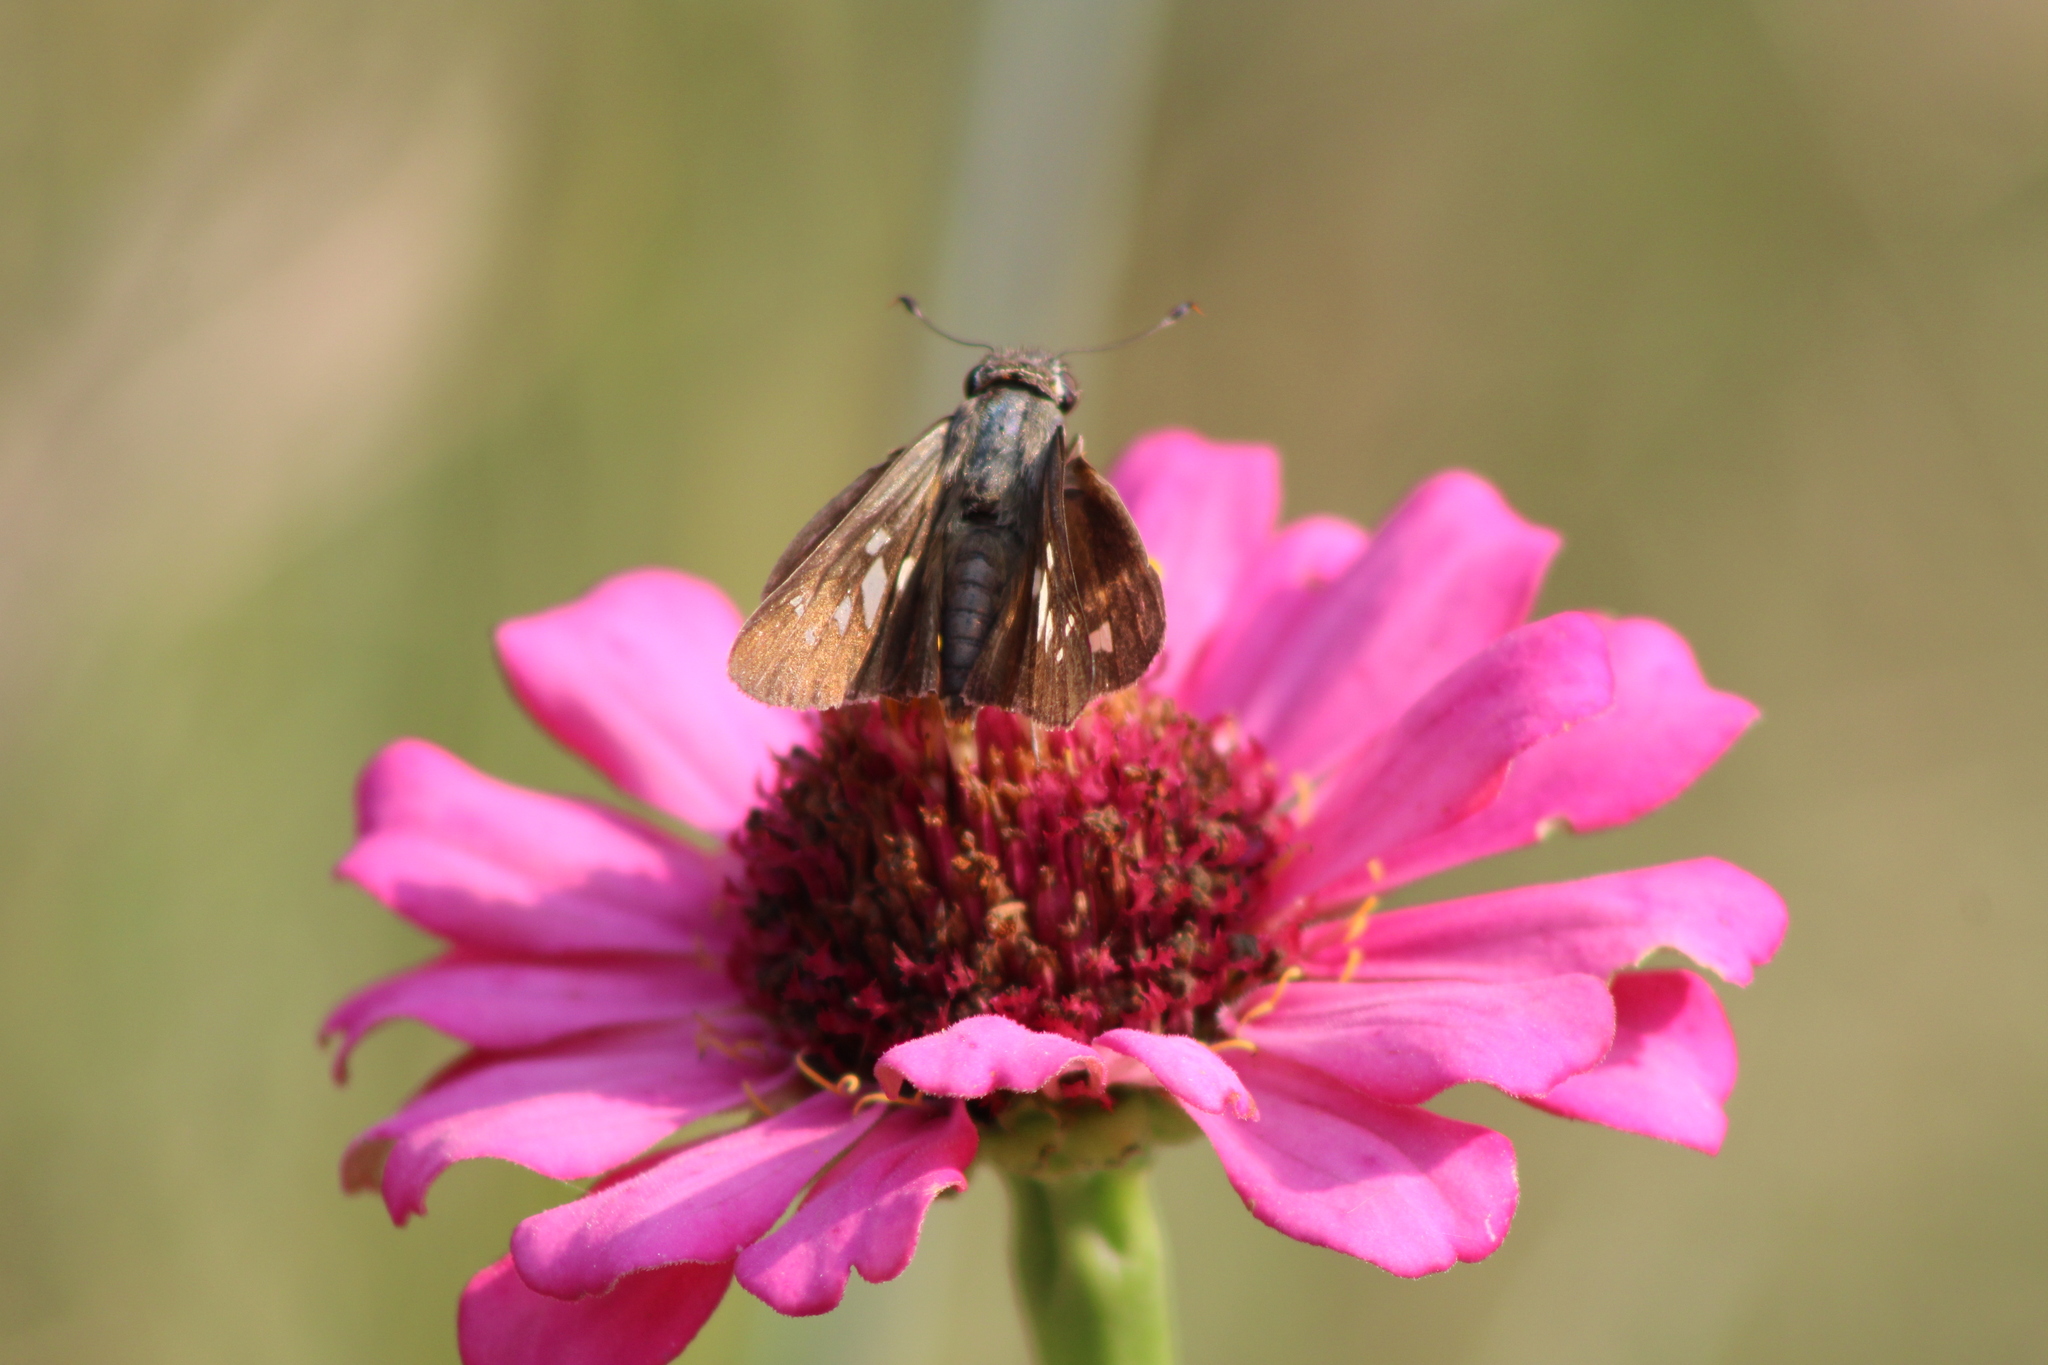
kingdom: Animalia
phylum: Arthropoda
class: Insecta
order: Lepidoptera
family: Hesperiidae
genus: Calpodes
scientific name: Calpodes ethlius
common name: Brazilian skipper
